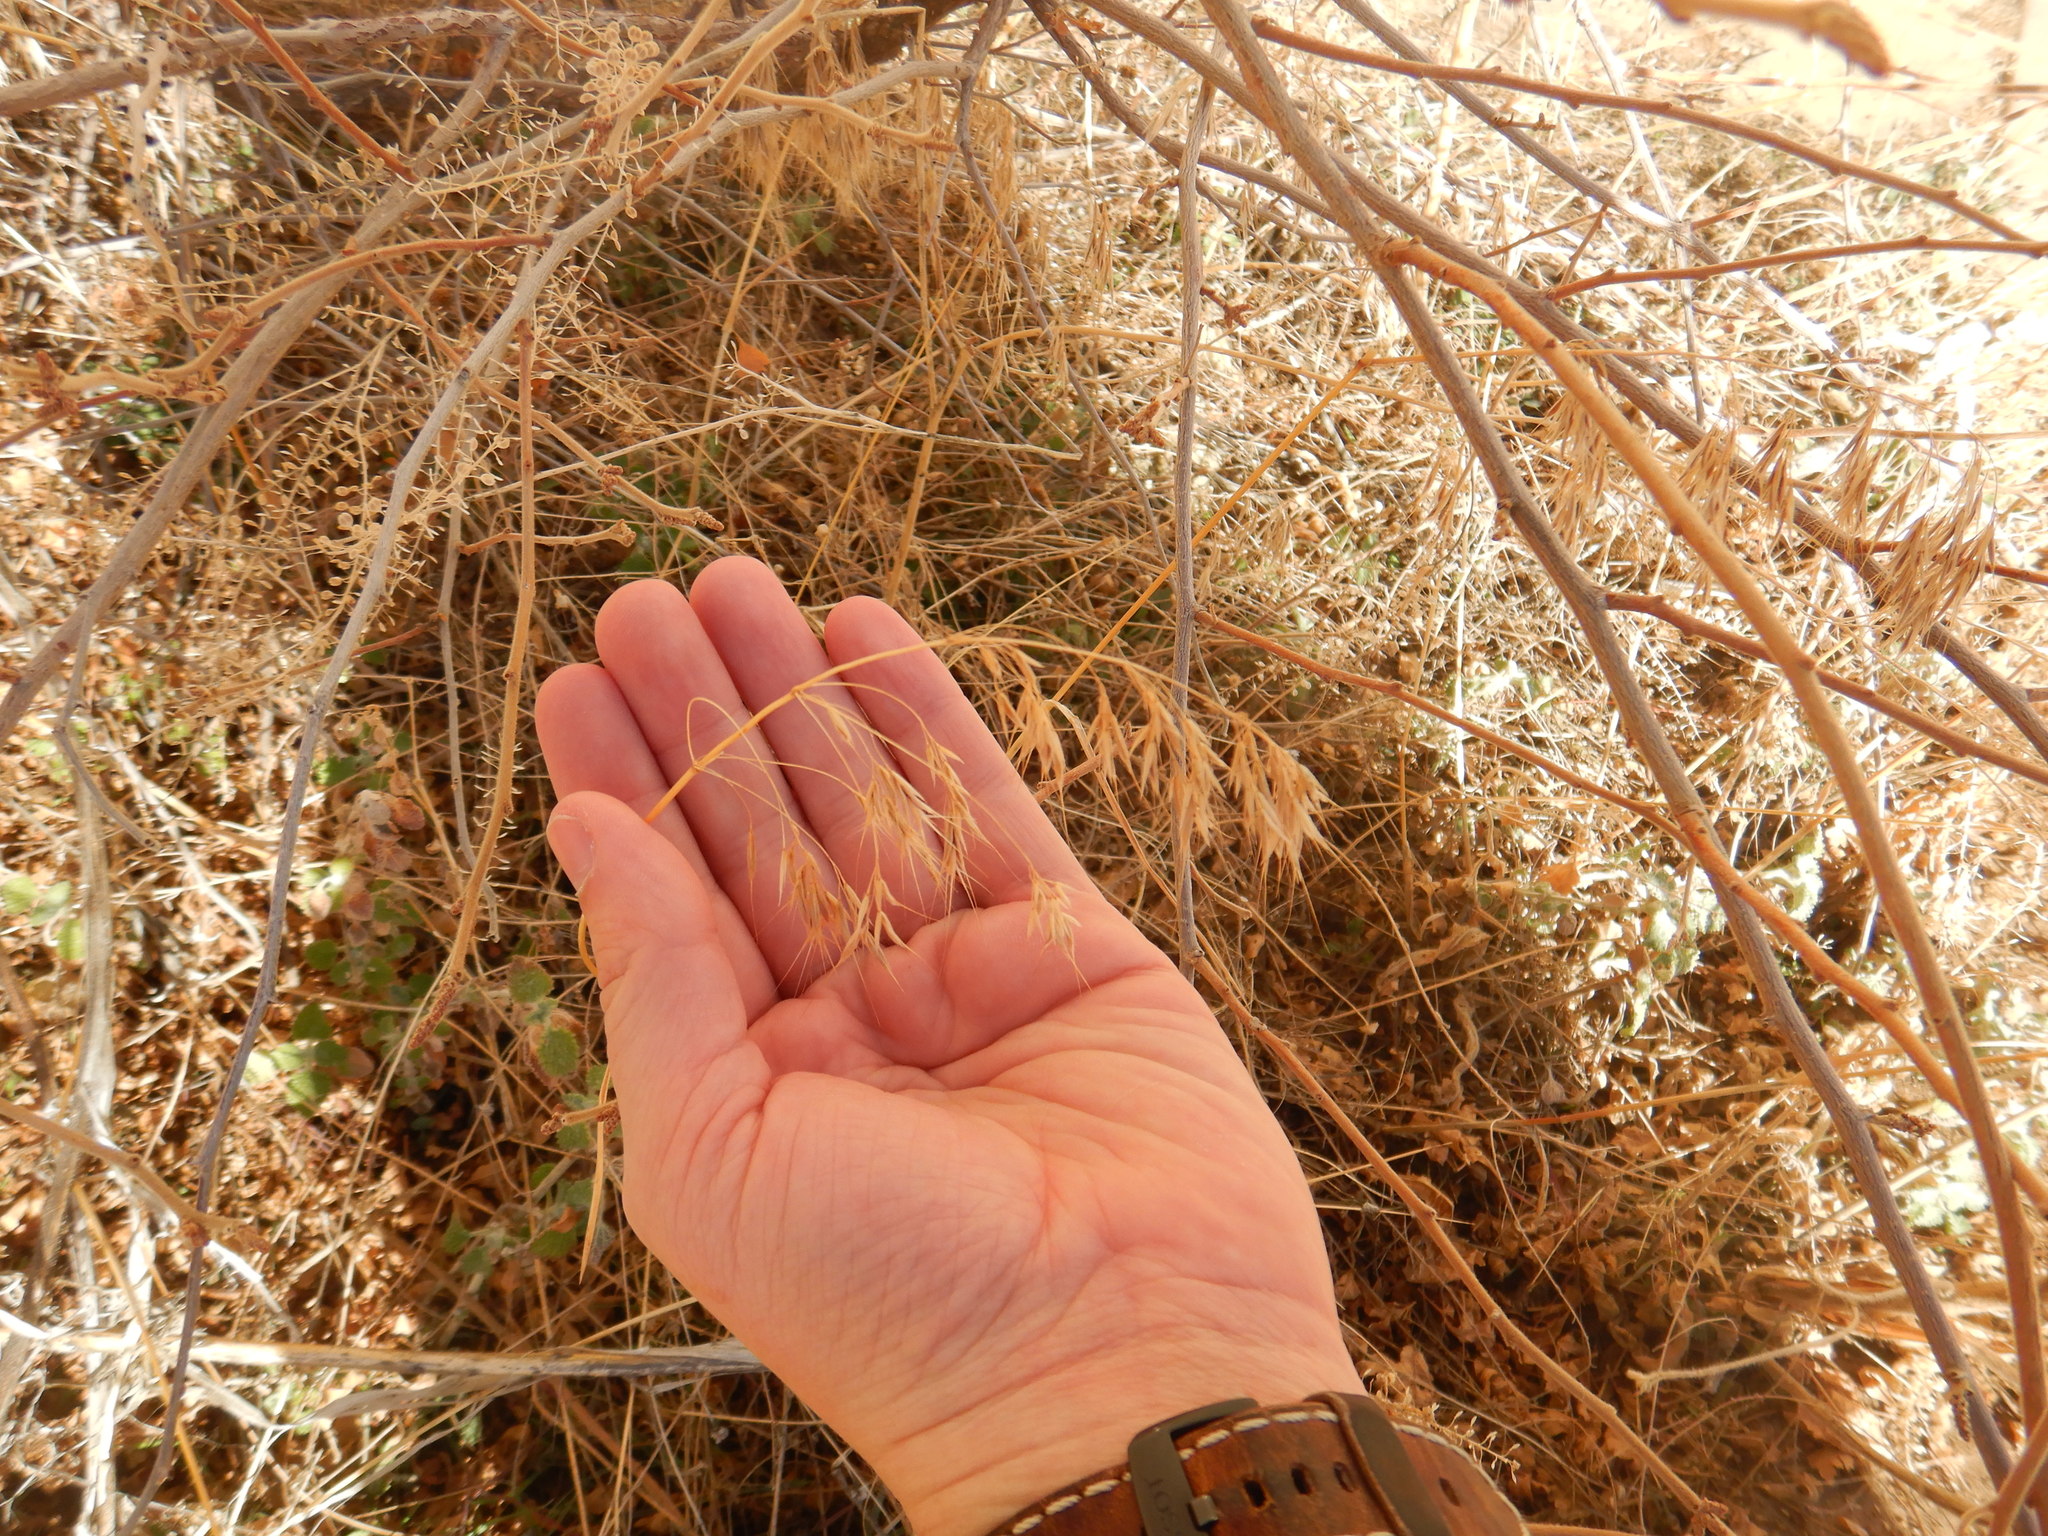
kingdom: Plantae
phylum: Tracheophyta
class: Liliopsida
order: Poales
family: Poaceae
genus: Bromus
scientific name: Bromus tectorum
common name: Cheatgrass
